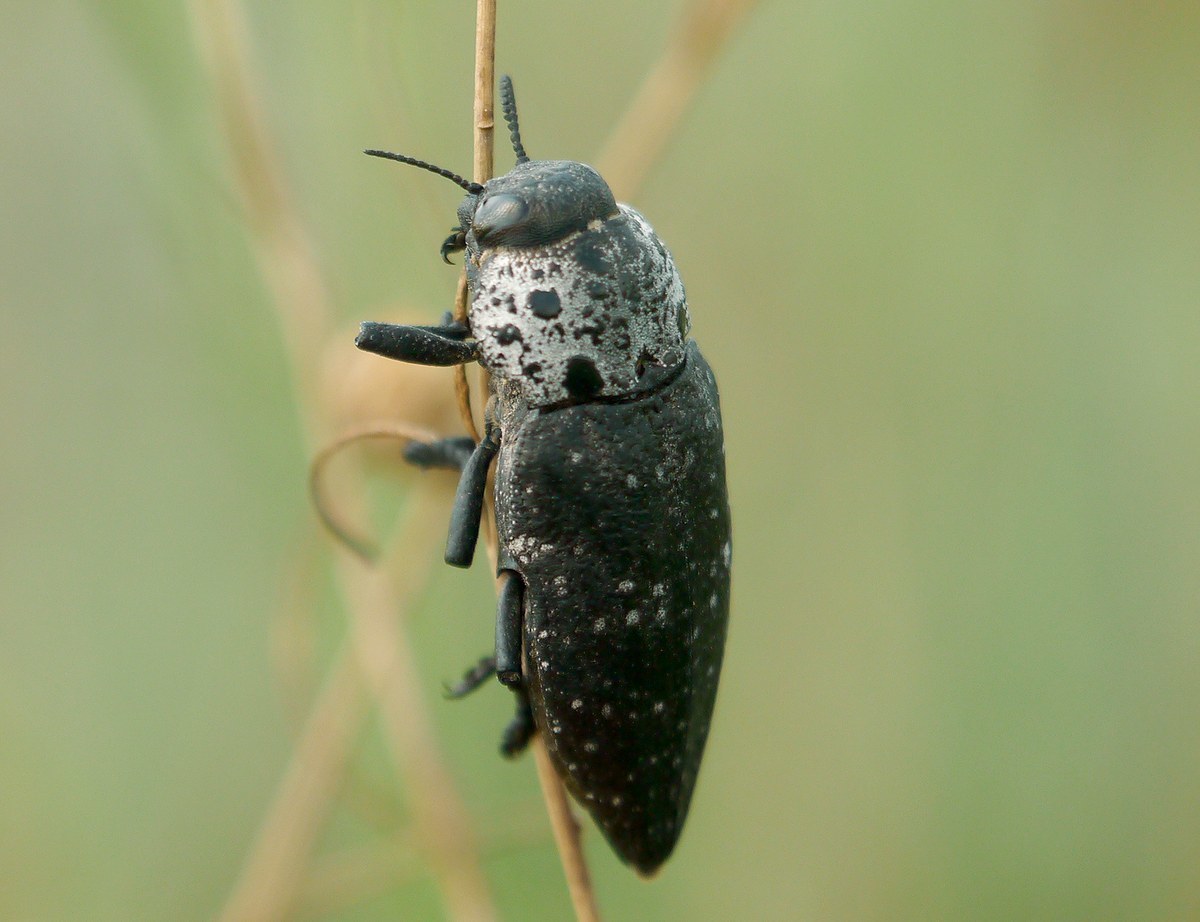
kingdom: Animalia
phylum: Arthropoda
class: Insecta
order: Coleoptera
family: Buprestidae
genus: Capnodis
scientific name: Capnodis tenebrionis
